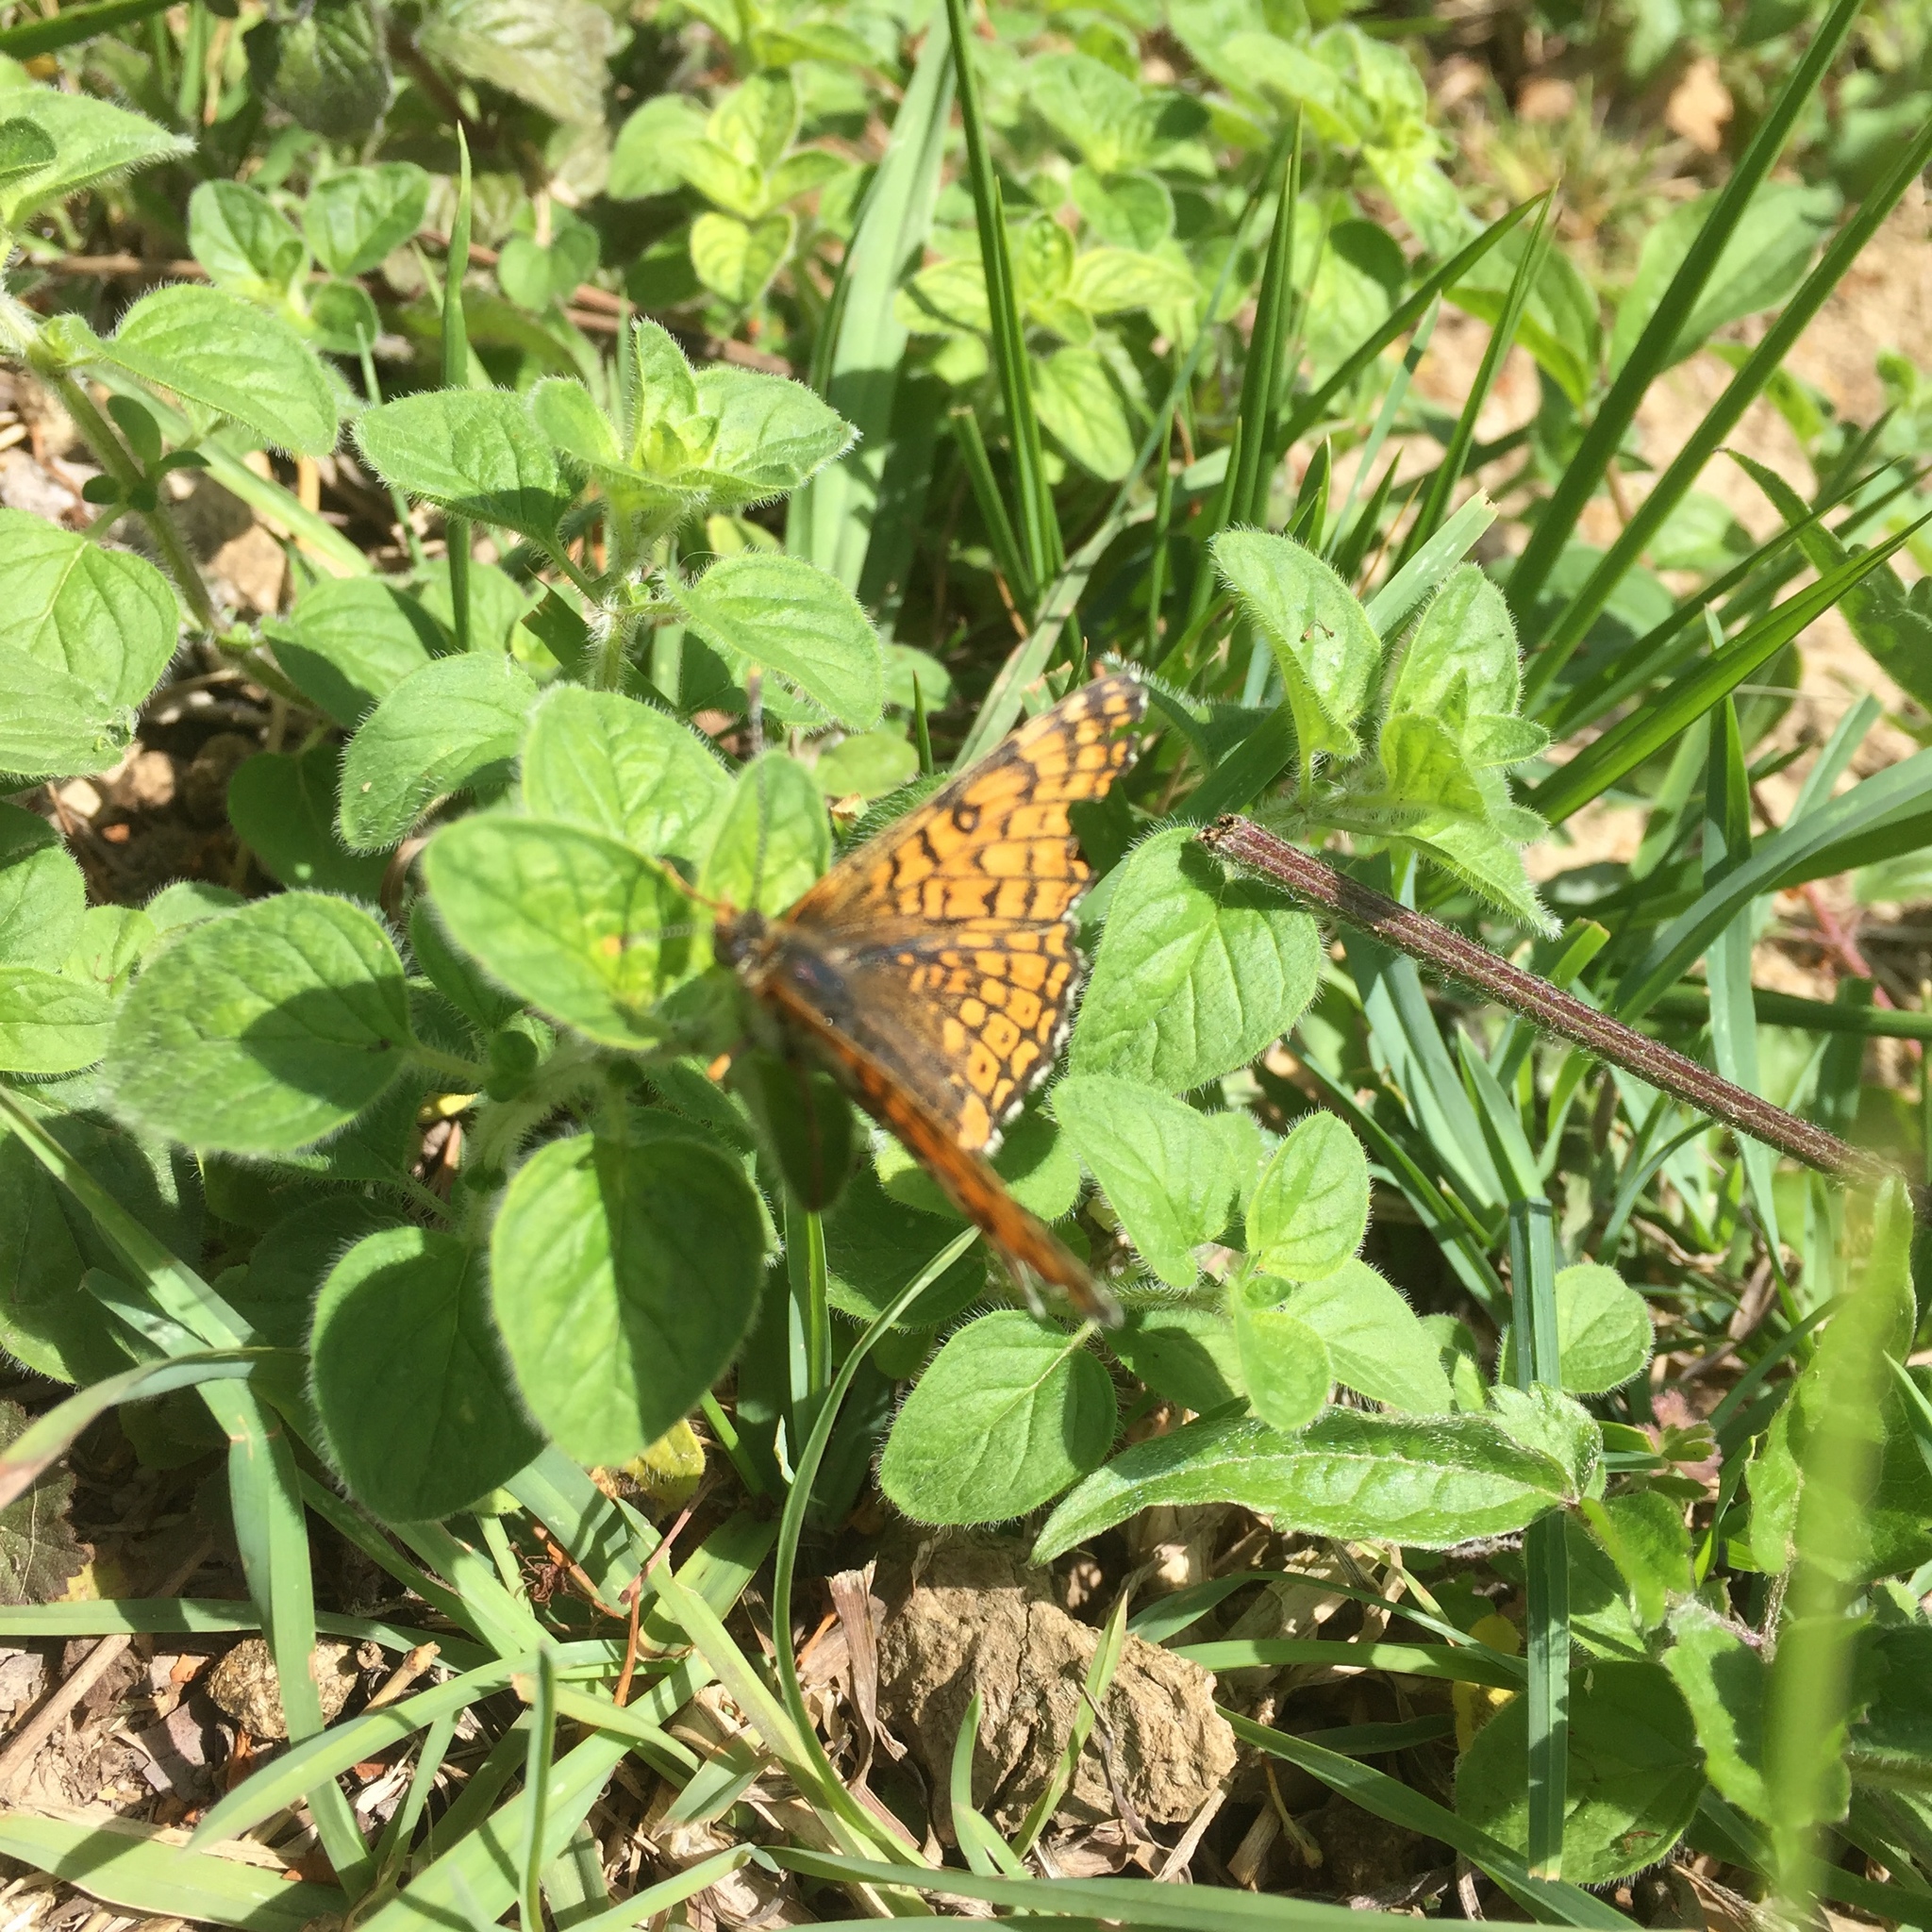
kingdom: Animalia
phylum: Arthropoda
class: Insecta
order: Lepidoptera
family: Nymphalidae
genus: Melitaea
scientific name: Melitaea cinxia
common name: Glanville fritillary
